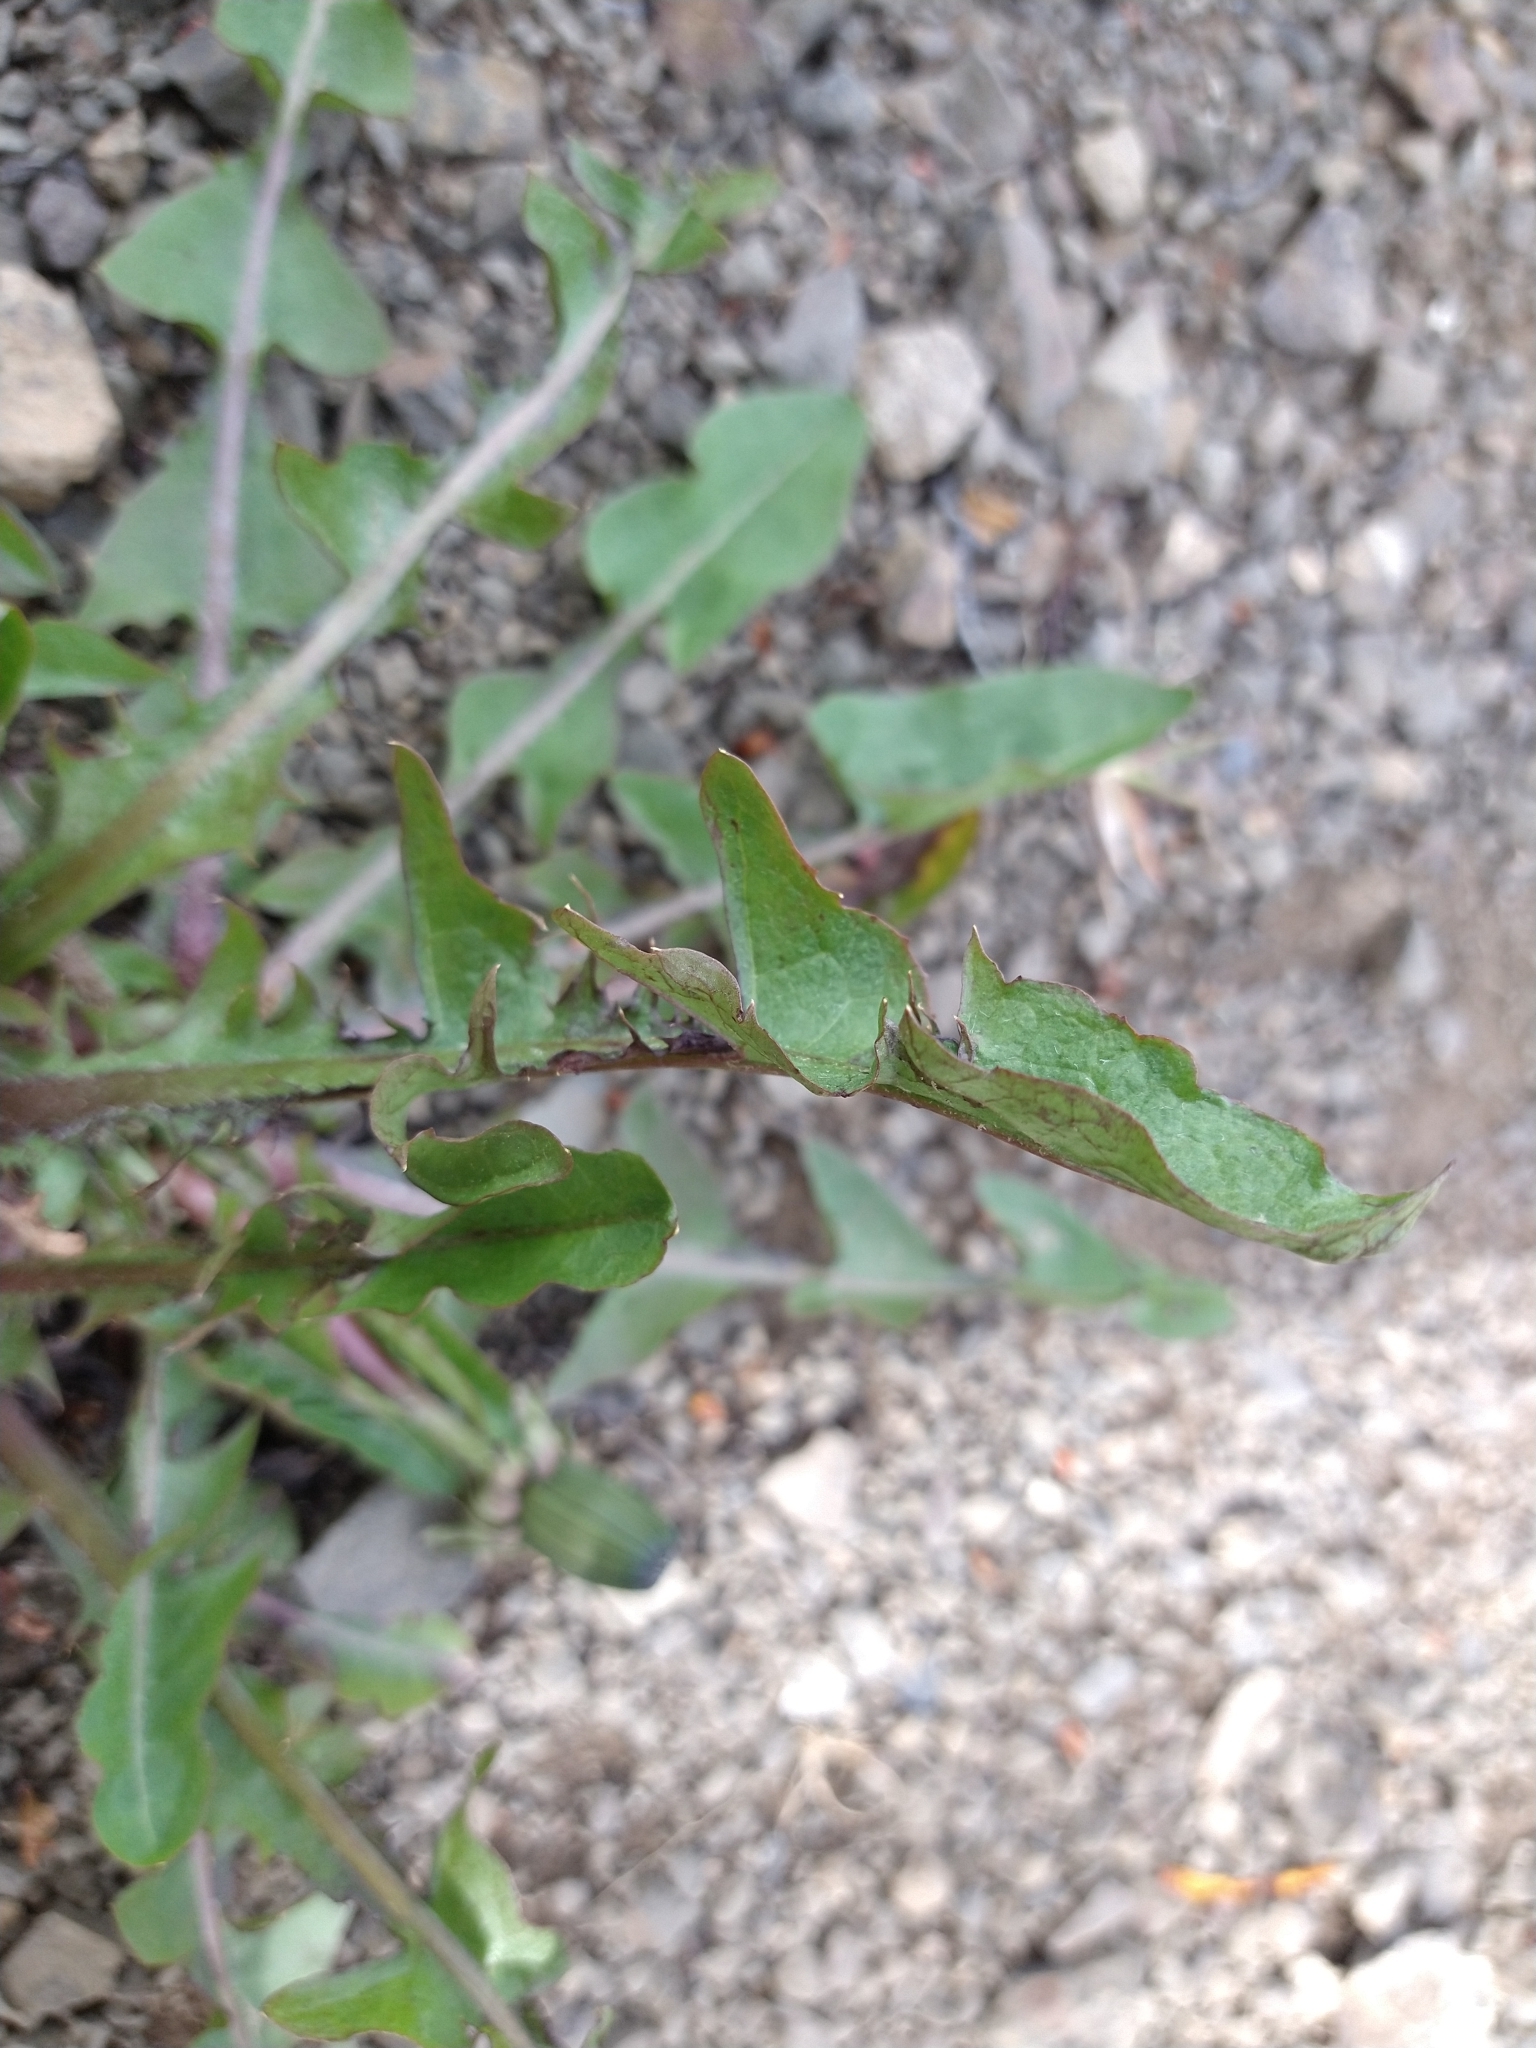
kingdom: Plantae
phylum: Tracheophyta
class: Magnoliopsida
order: Asterales
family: Asteraceae
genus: Taraxacum
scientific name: Taraxacum officinale
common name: Common dandelion
